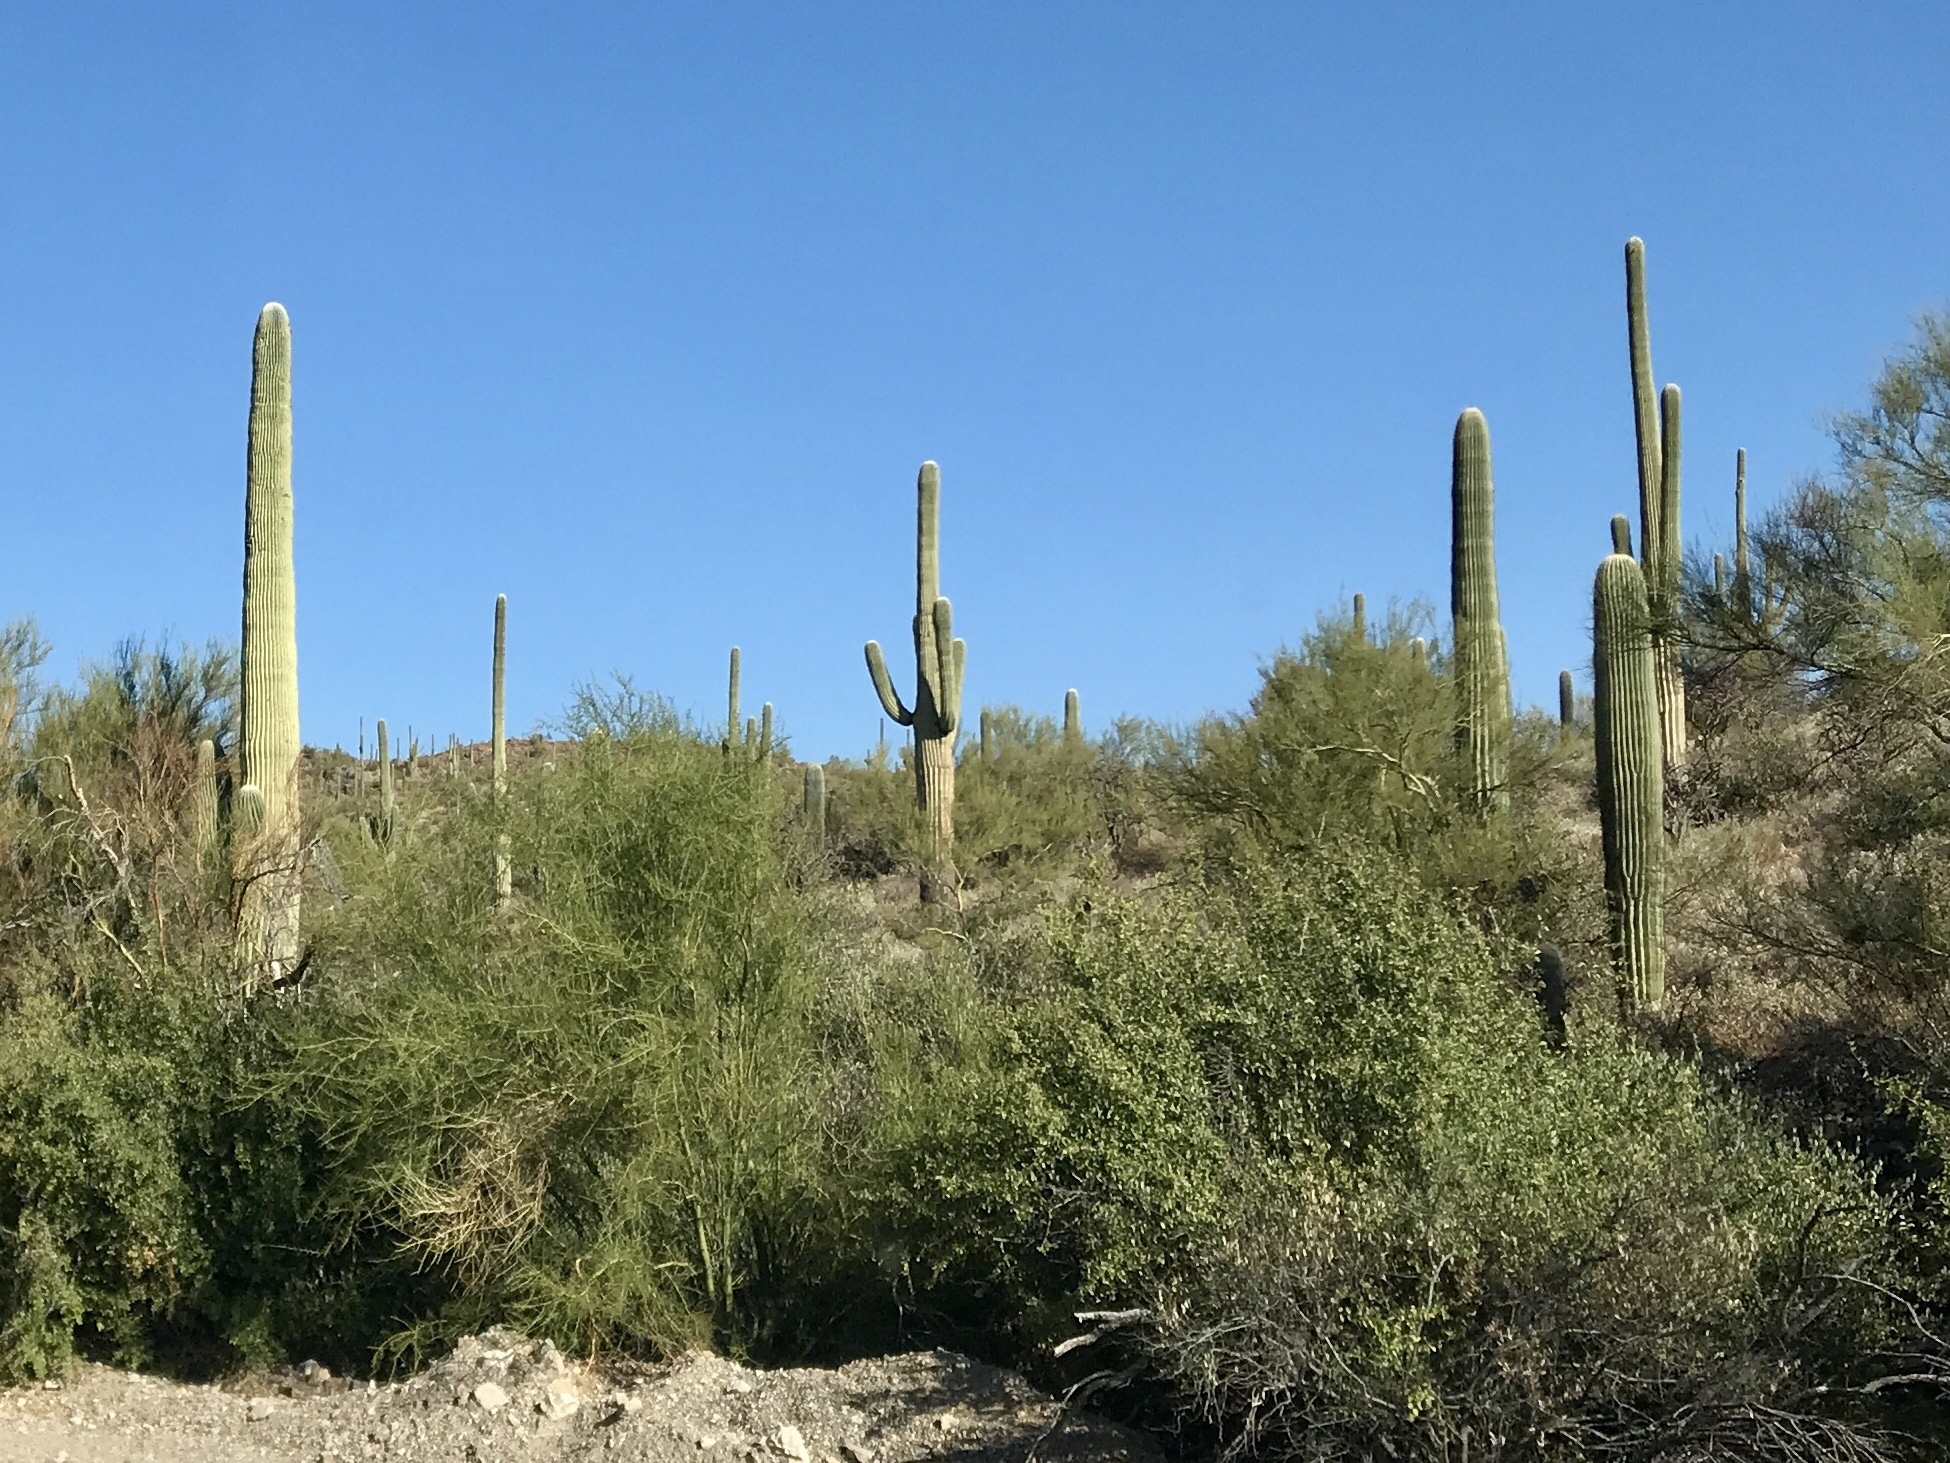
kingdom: Plantae
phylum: Tracheophyta
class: Magnoliopsida
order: Caryophyllales
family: Cactaceae
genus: Carnegiea
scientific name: Carnegiea gigantea
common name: Saguaro
